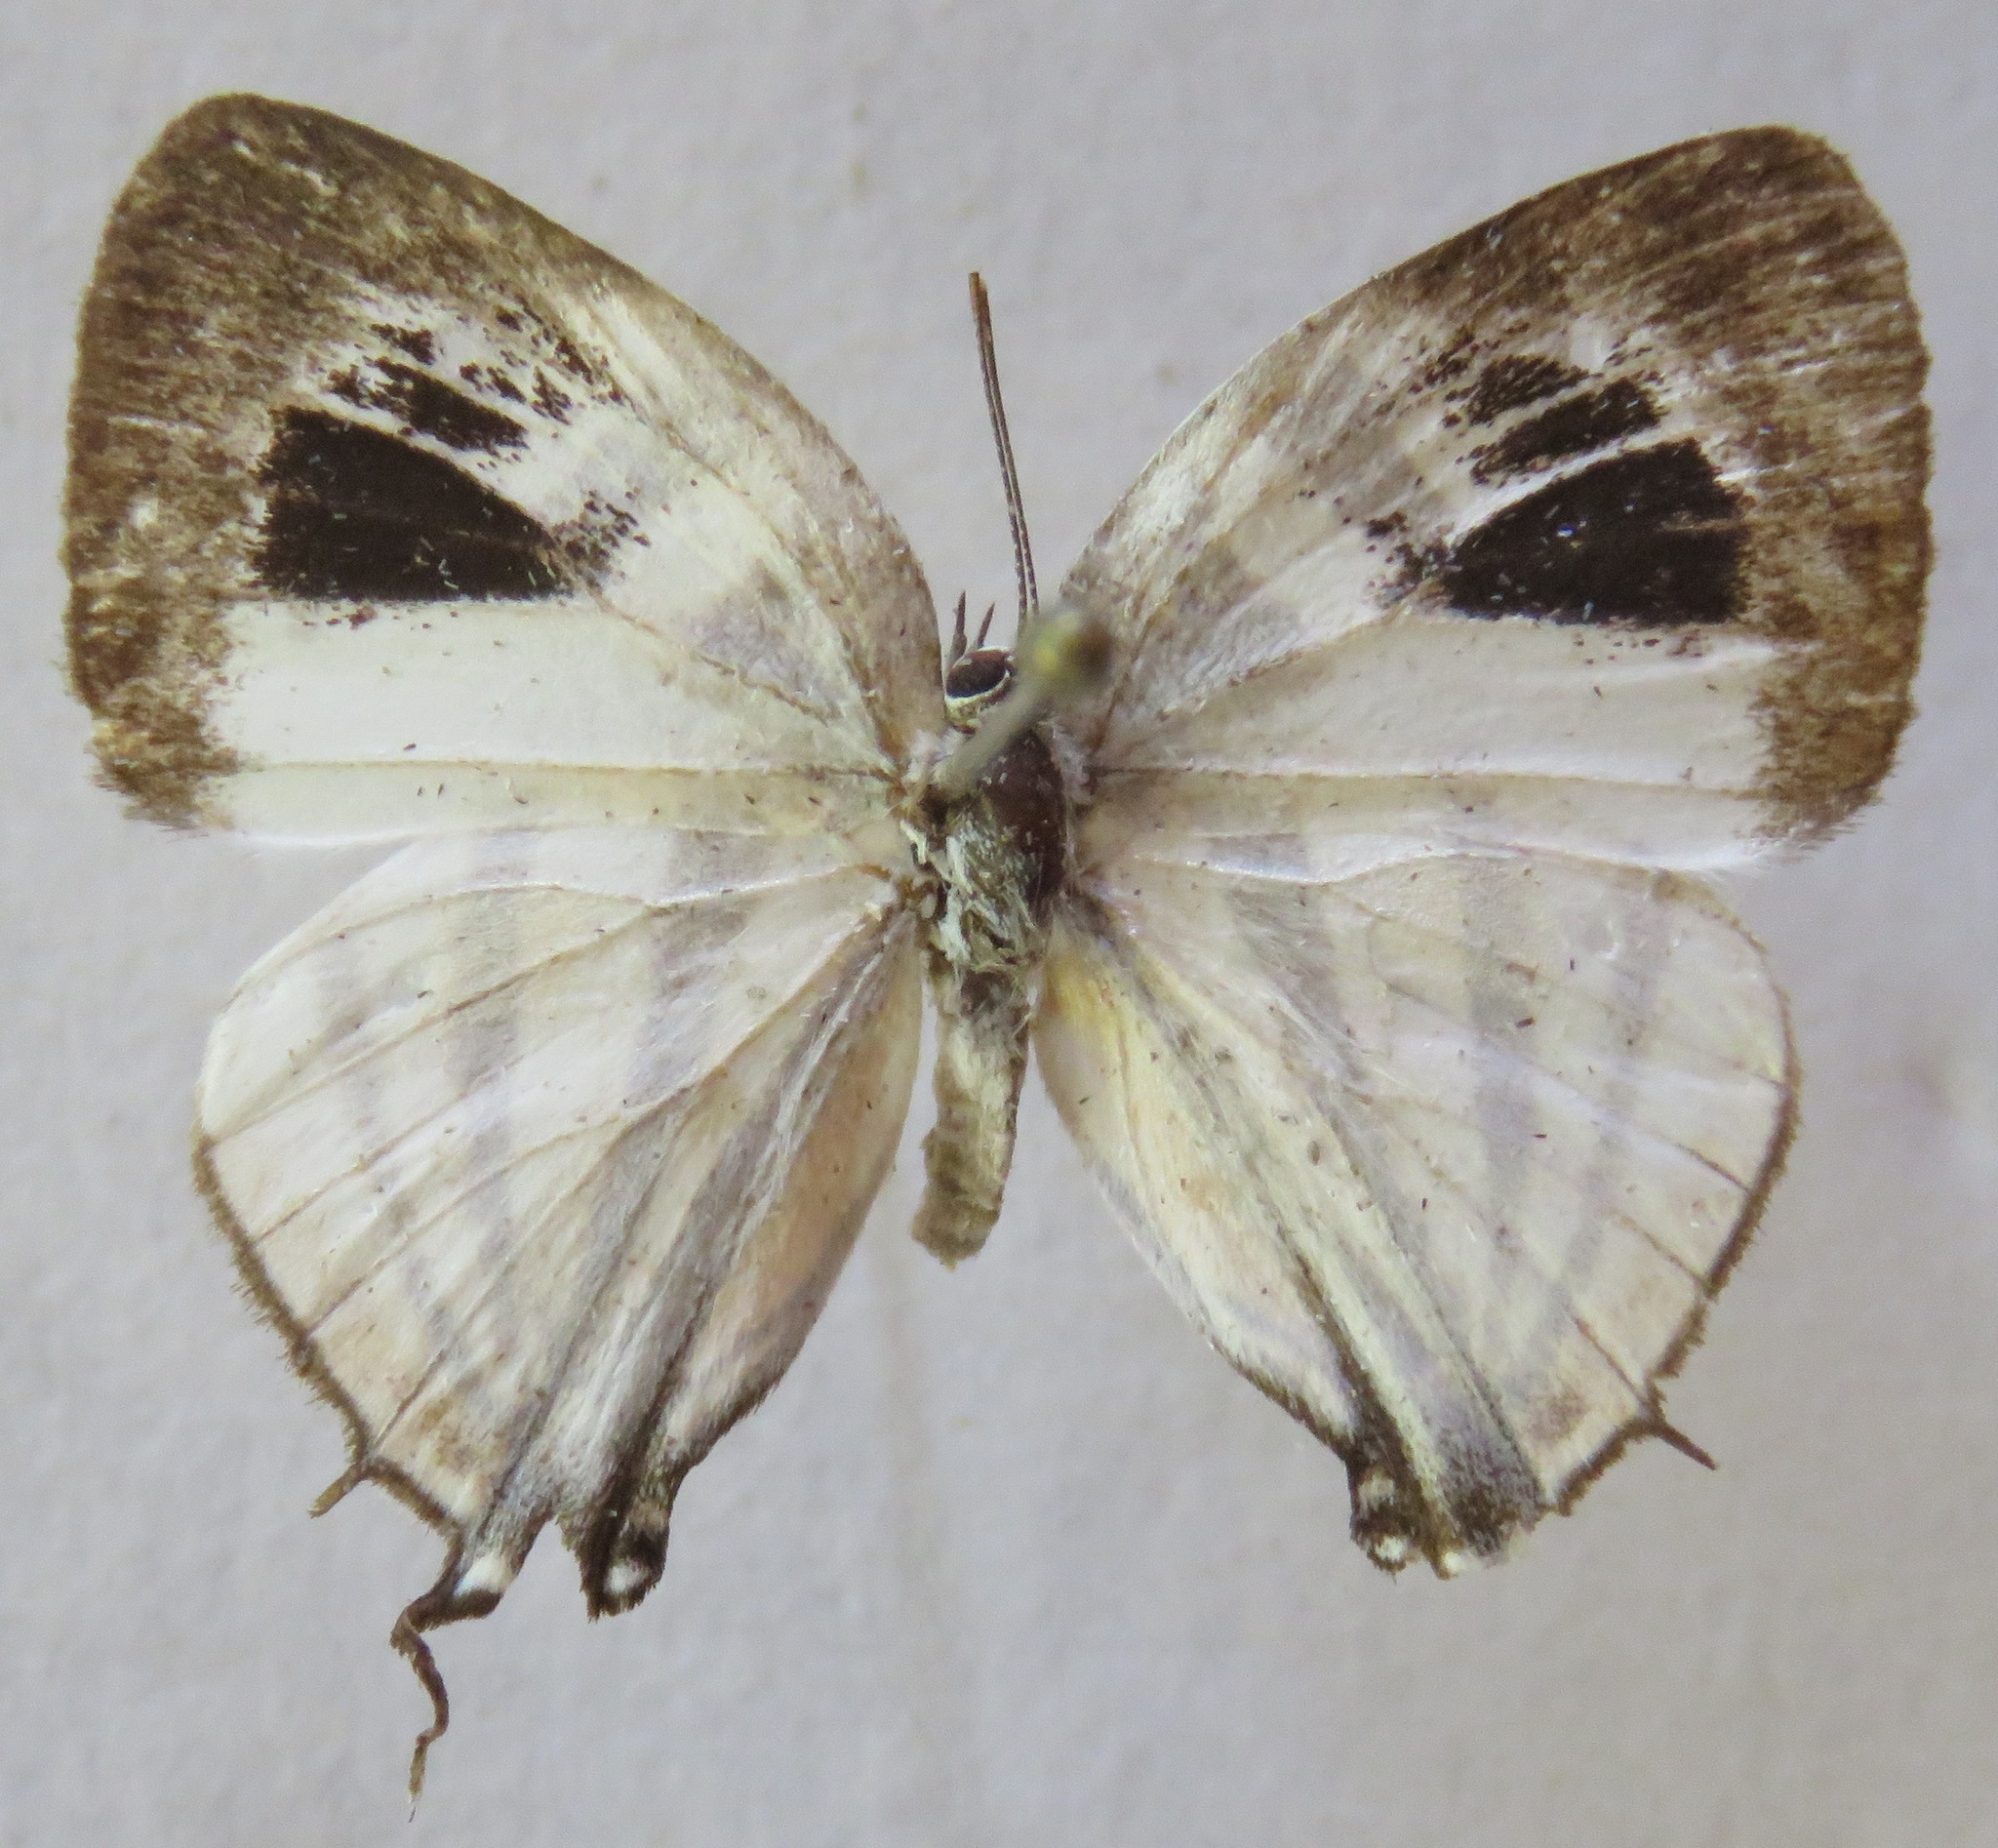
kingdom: Animalia
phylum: Arthropoda
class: Insecta
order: Lepidoptera
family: Lycaenidae
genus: Arawacus
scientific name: Arawacus togarna
